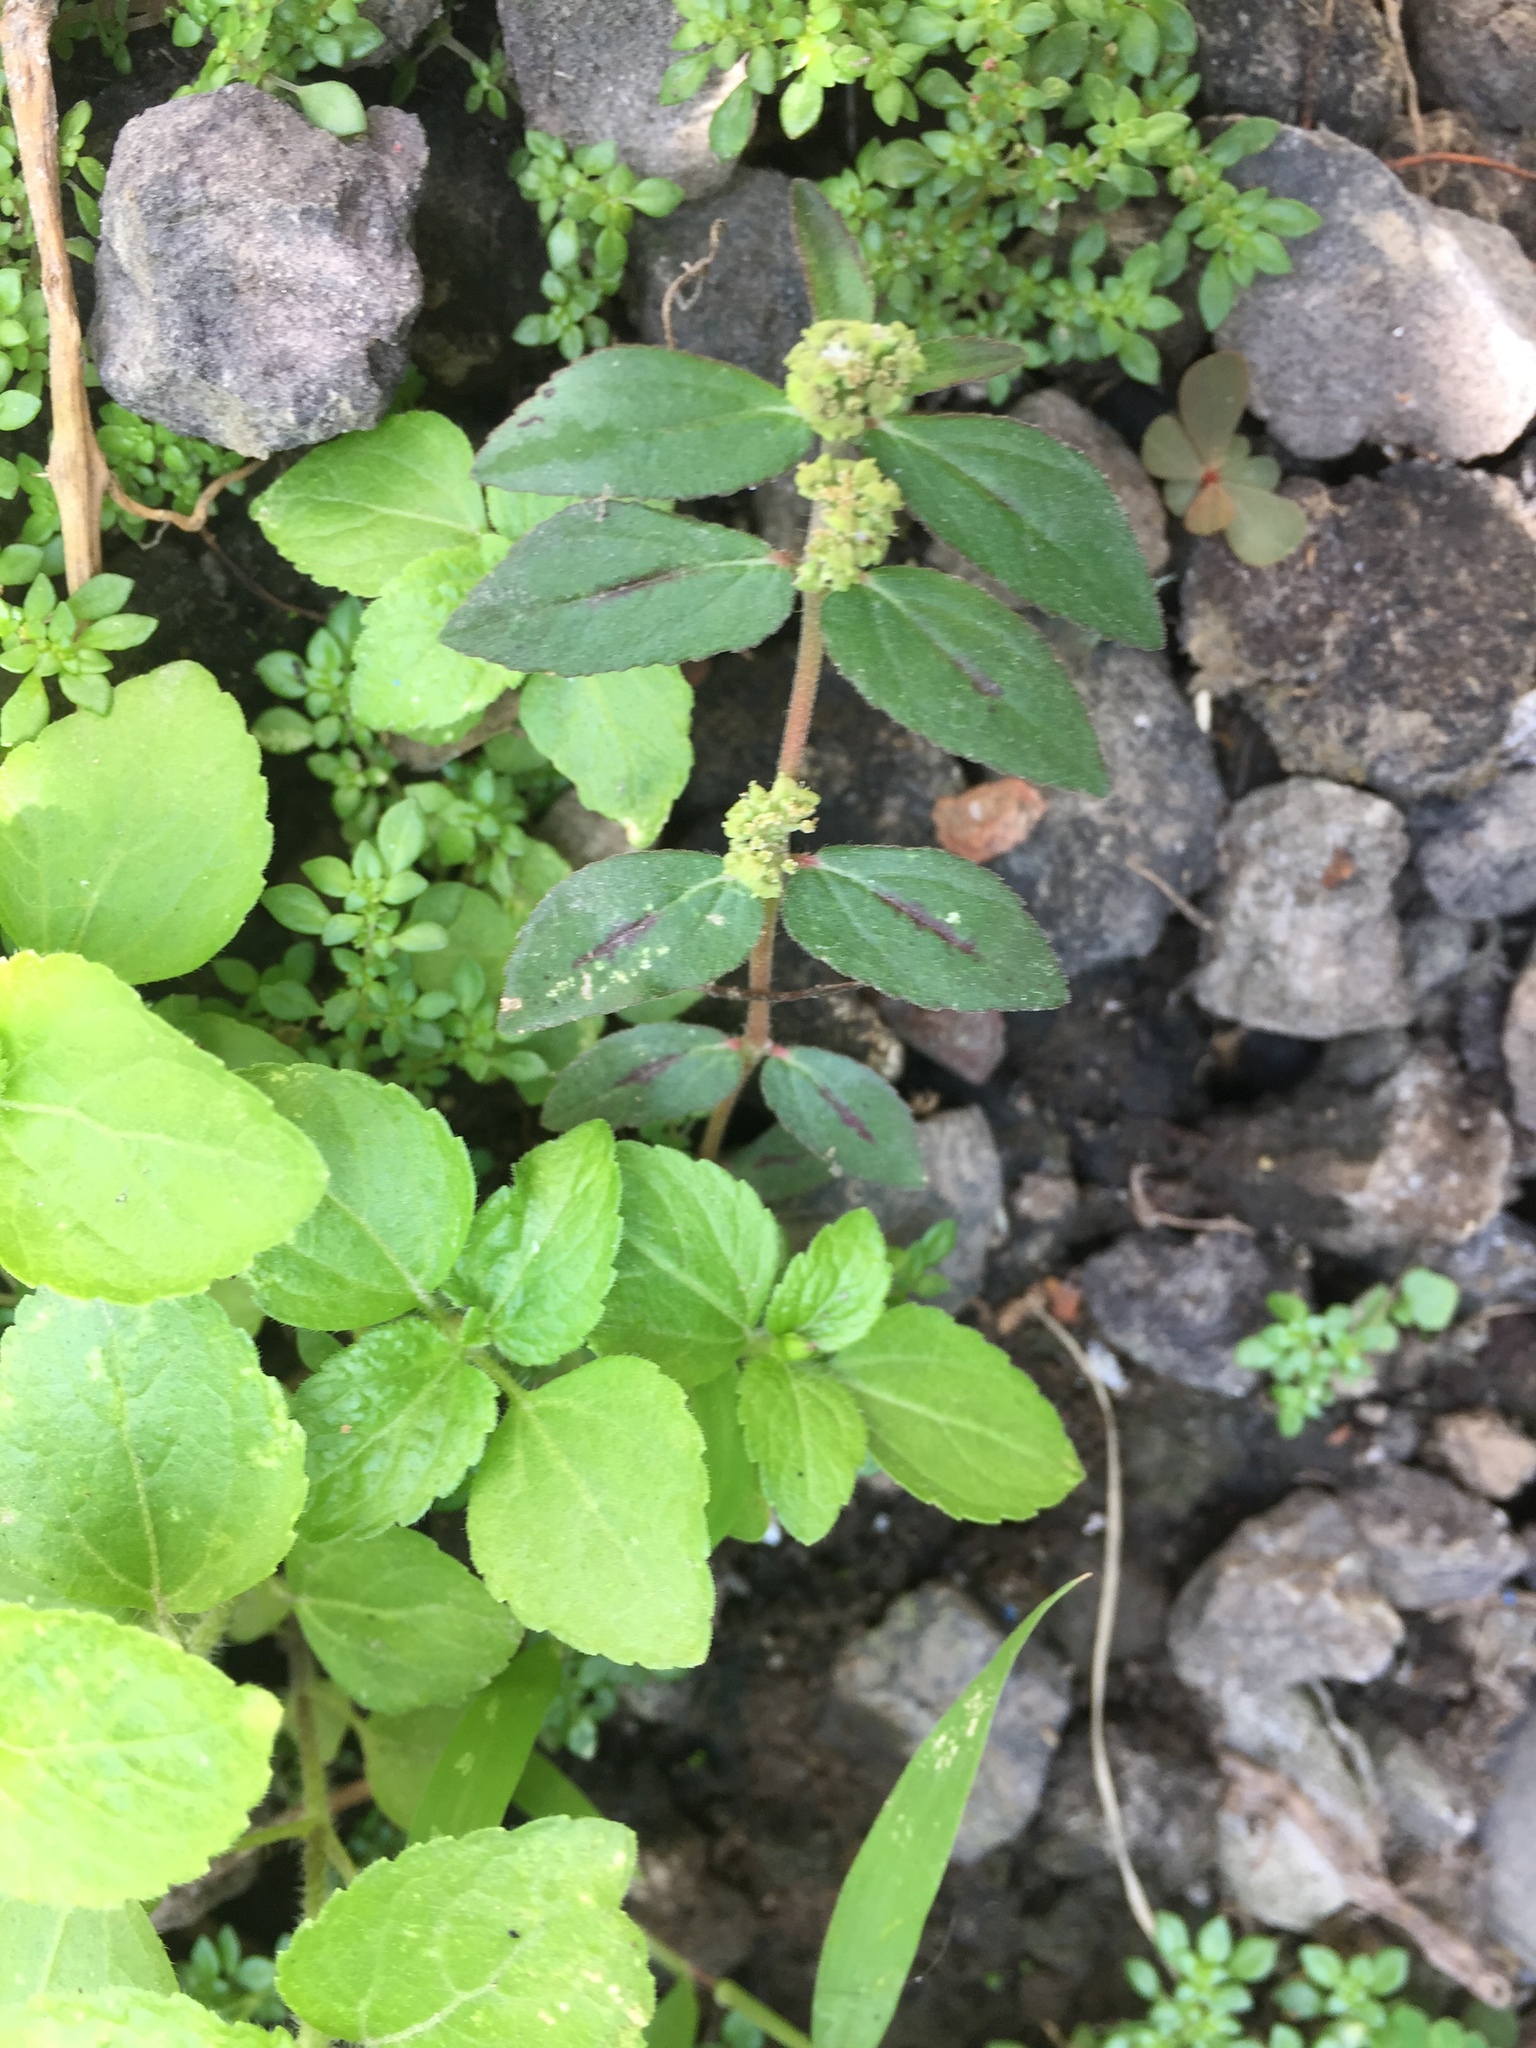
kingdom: Plantae
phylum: Tracheophyta
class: Magnoliopsida
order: Malpighiales
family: Euphorbiaceae
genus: Euphorbia
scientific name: Euphorbia hirta
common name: Pillpod sandmat
